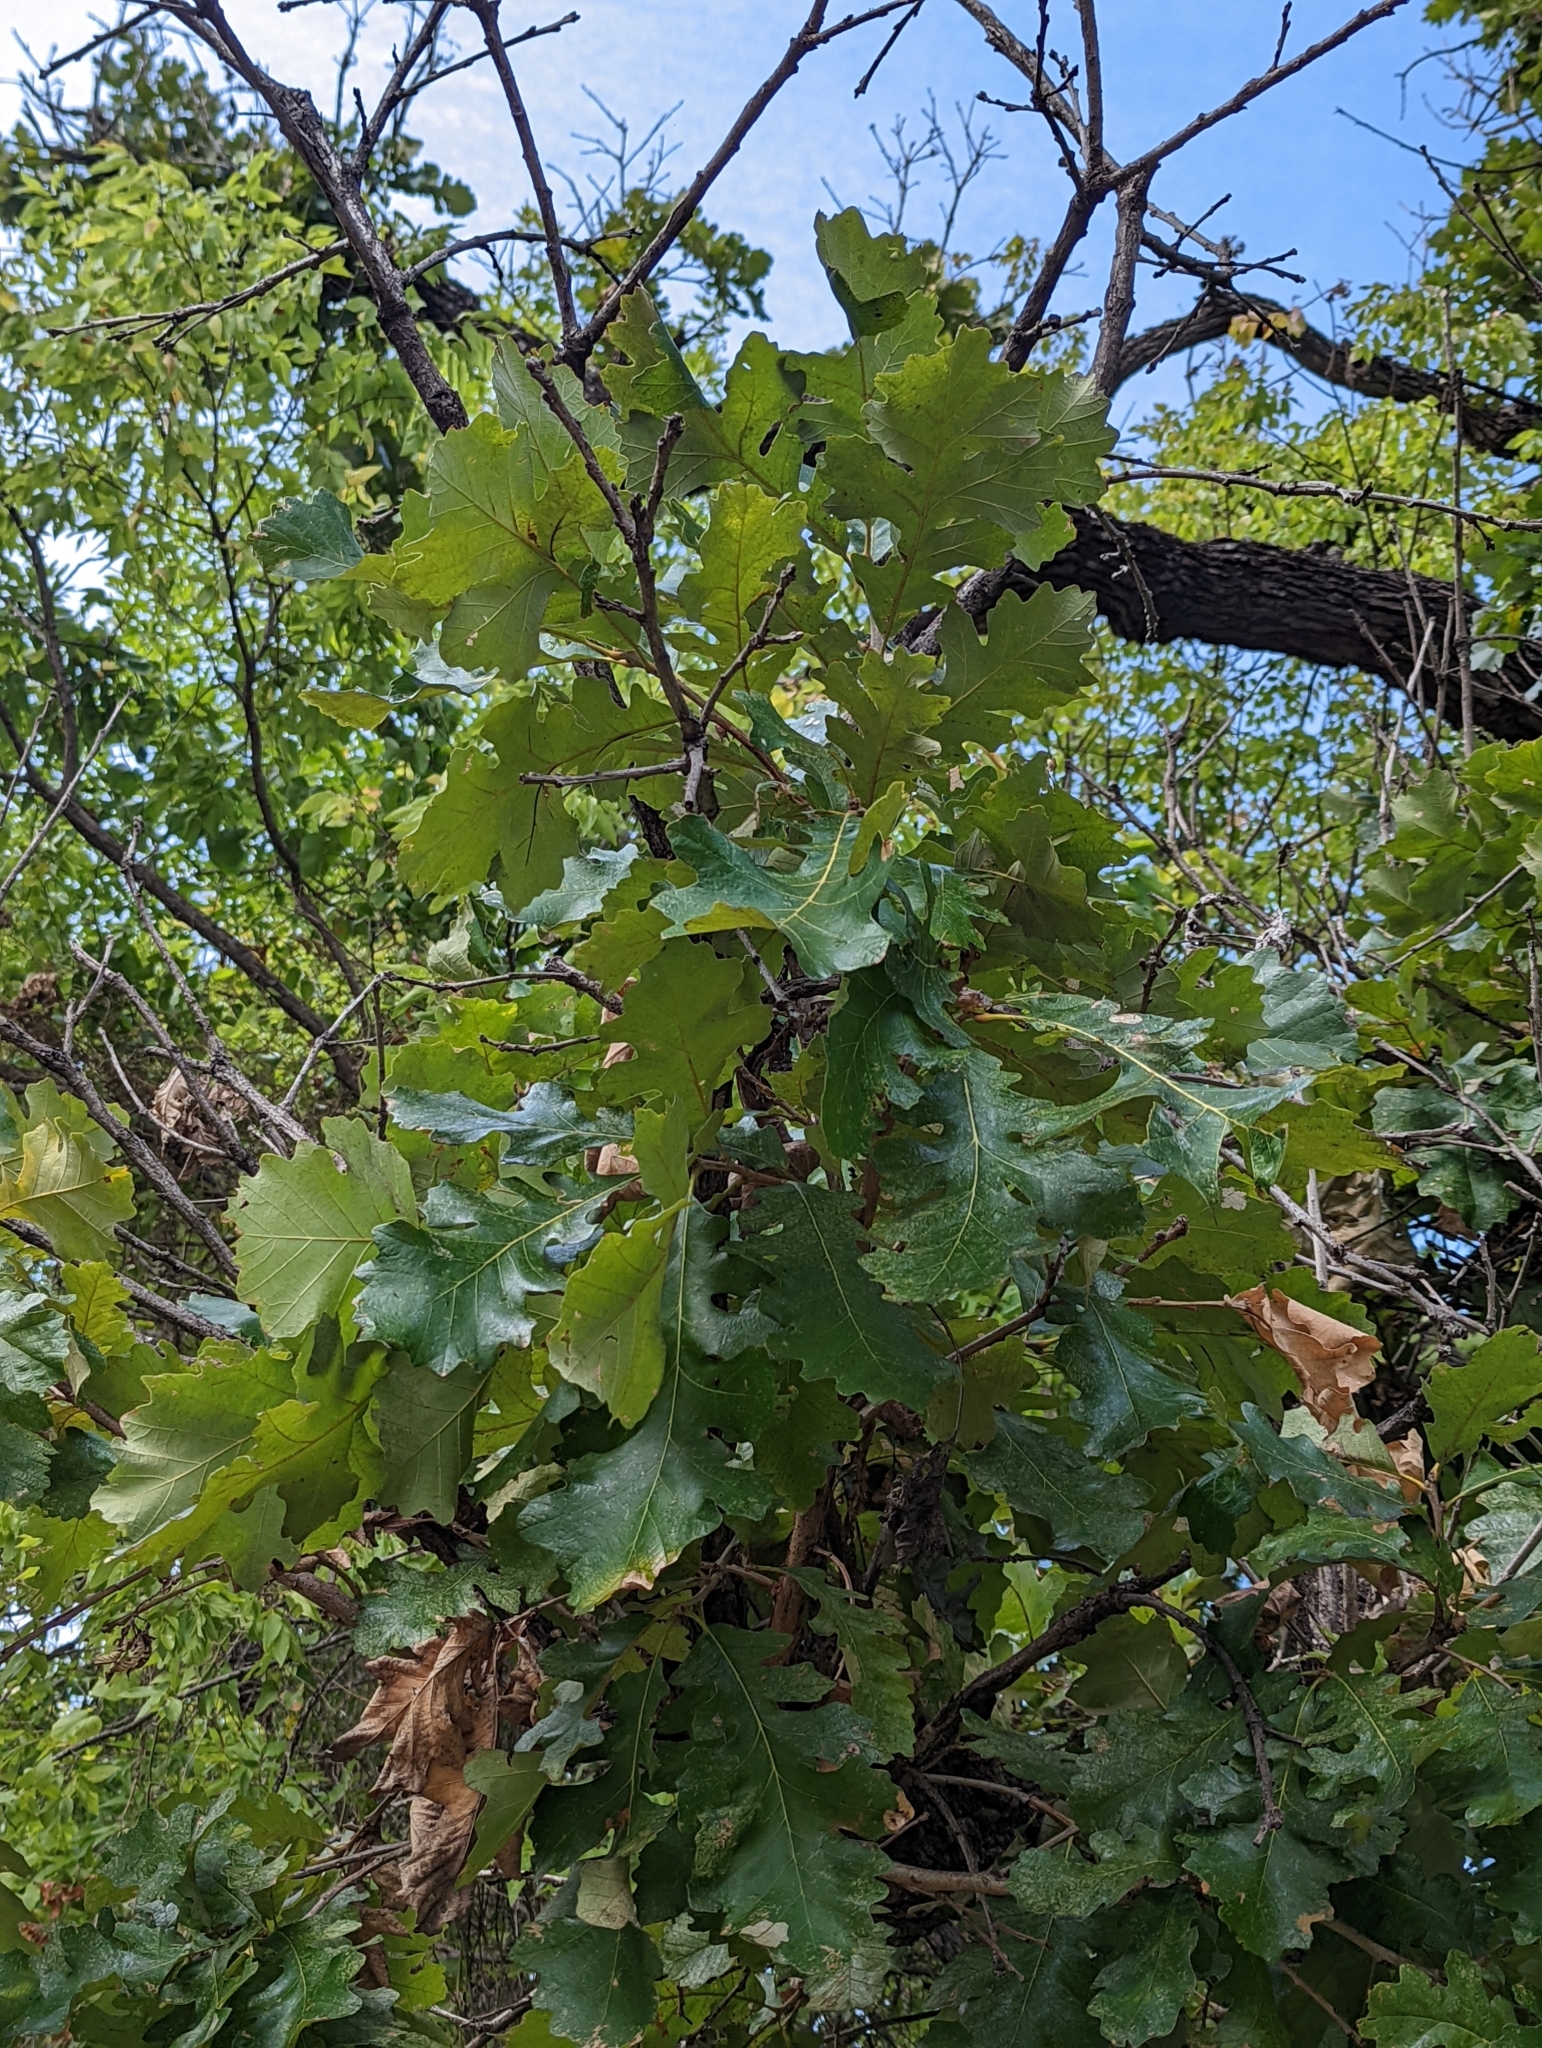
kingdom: Plantae
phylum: Tracheophyta
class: Magnoliopsida
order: Fagales
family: Fagaceae
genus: Quercus
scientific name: Quercus macrocarpa
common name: Bur oak
